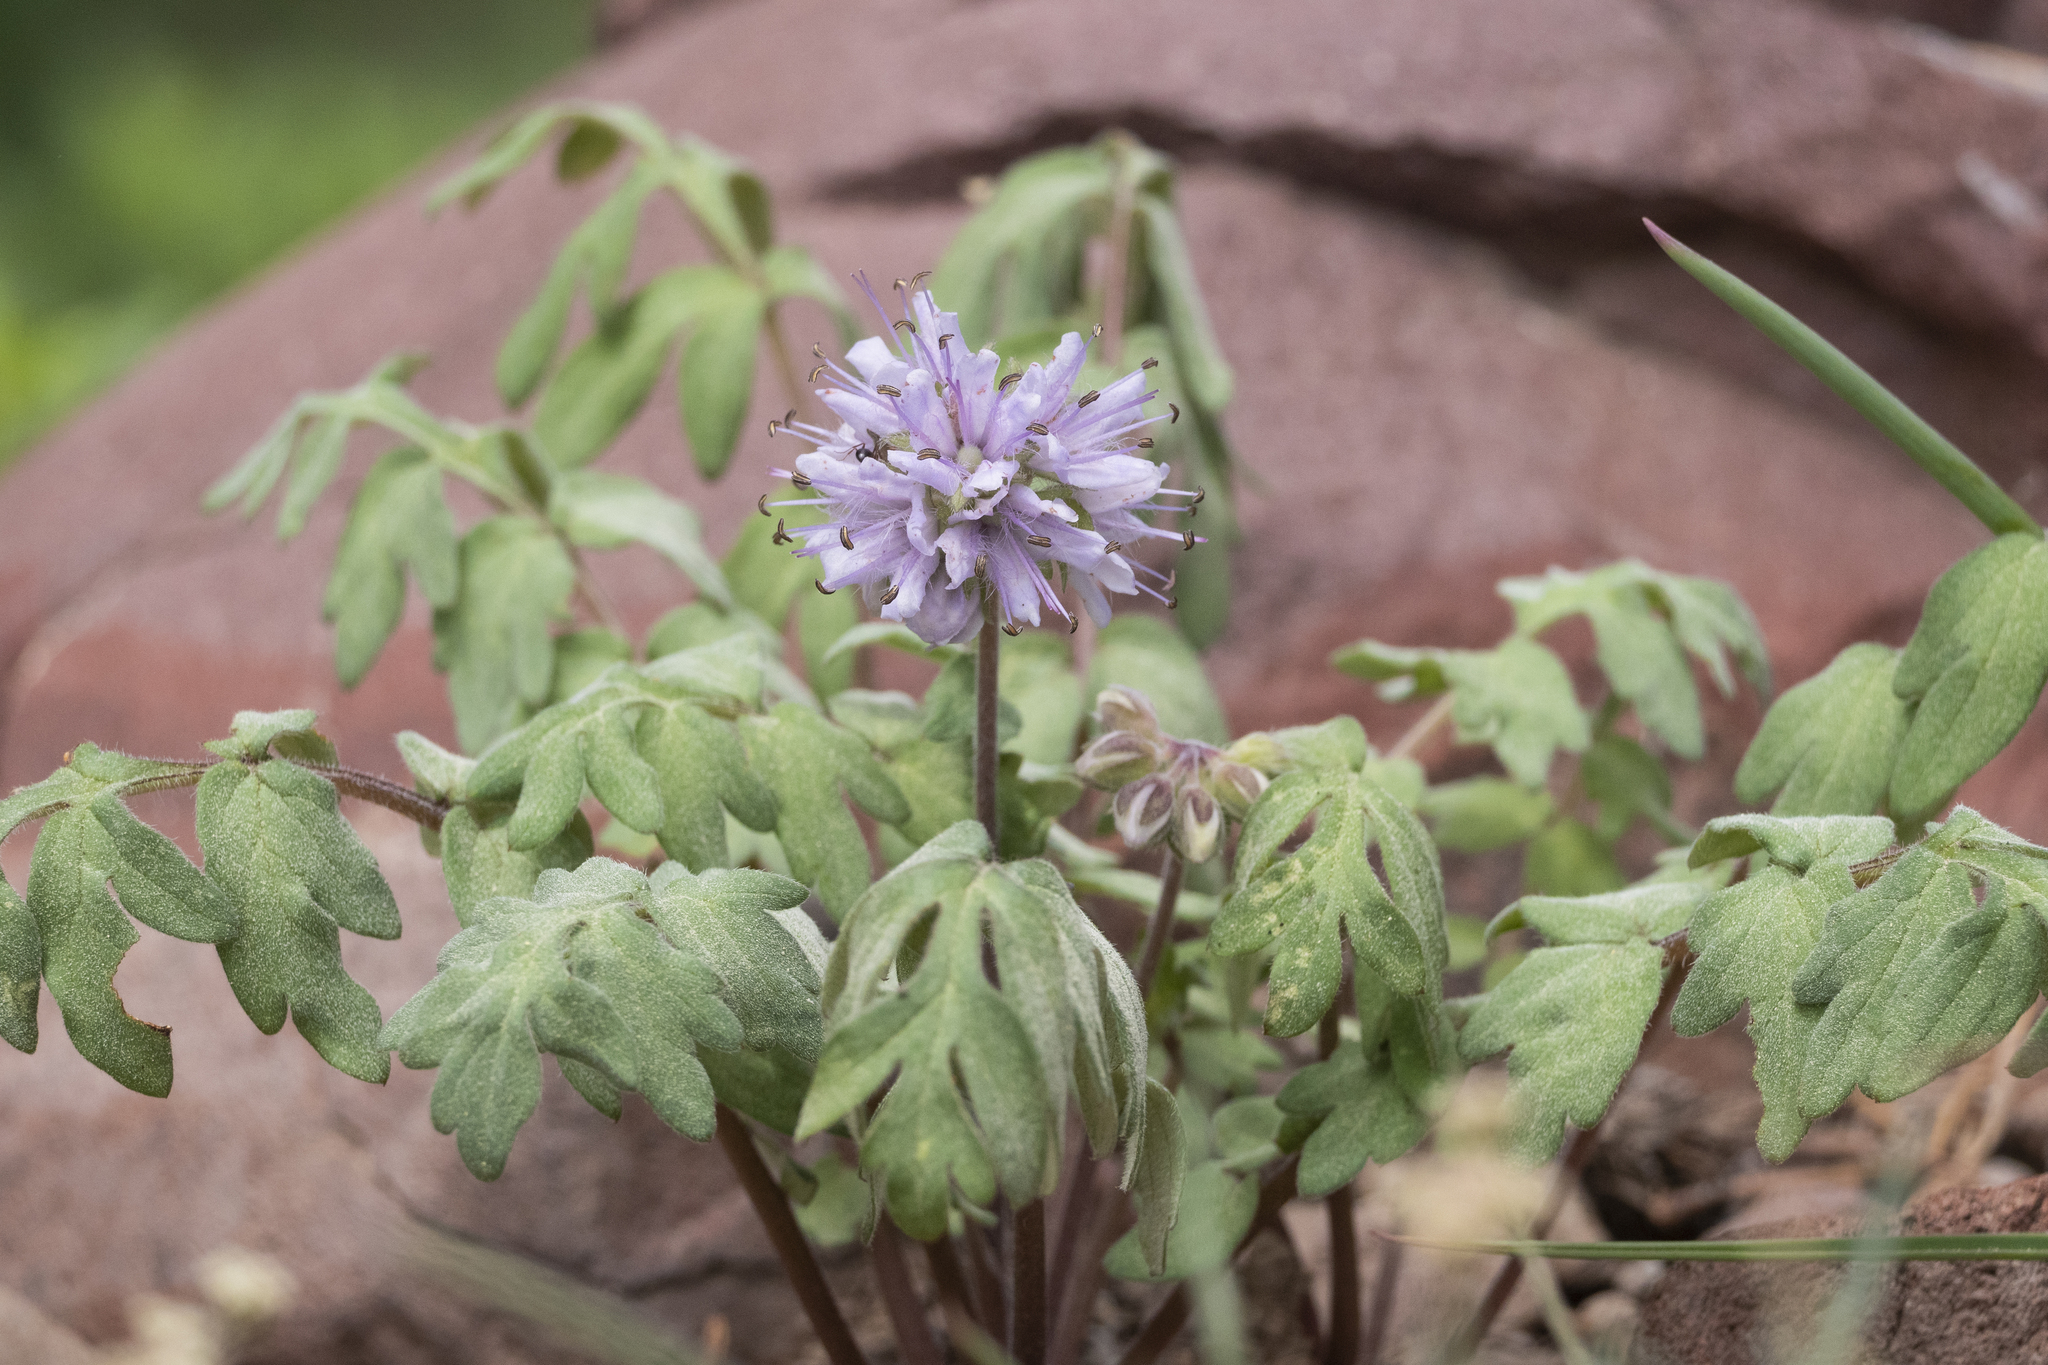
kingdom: Plantae
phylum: Tracheophyta
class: Magnoliopsida
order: Boraginales
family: Hydrophyllaceae
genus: Hydrophyllum
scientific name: Hydrophyllum occidentale
